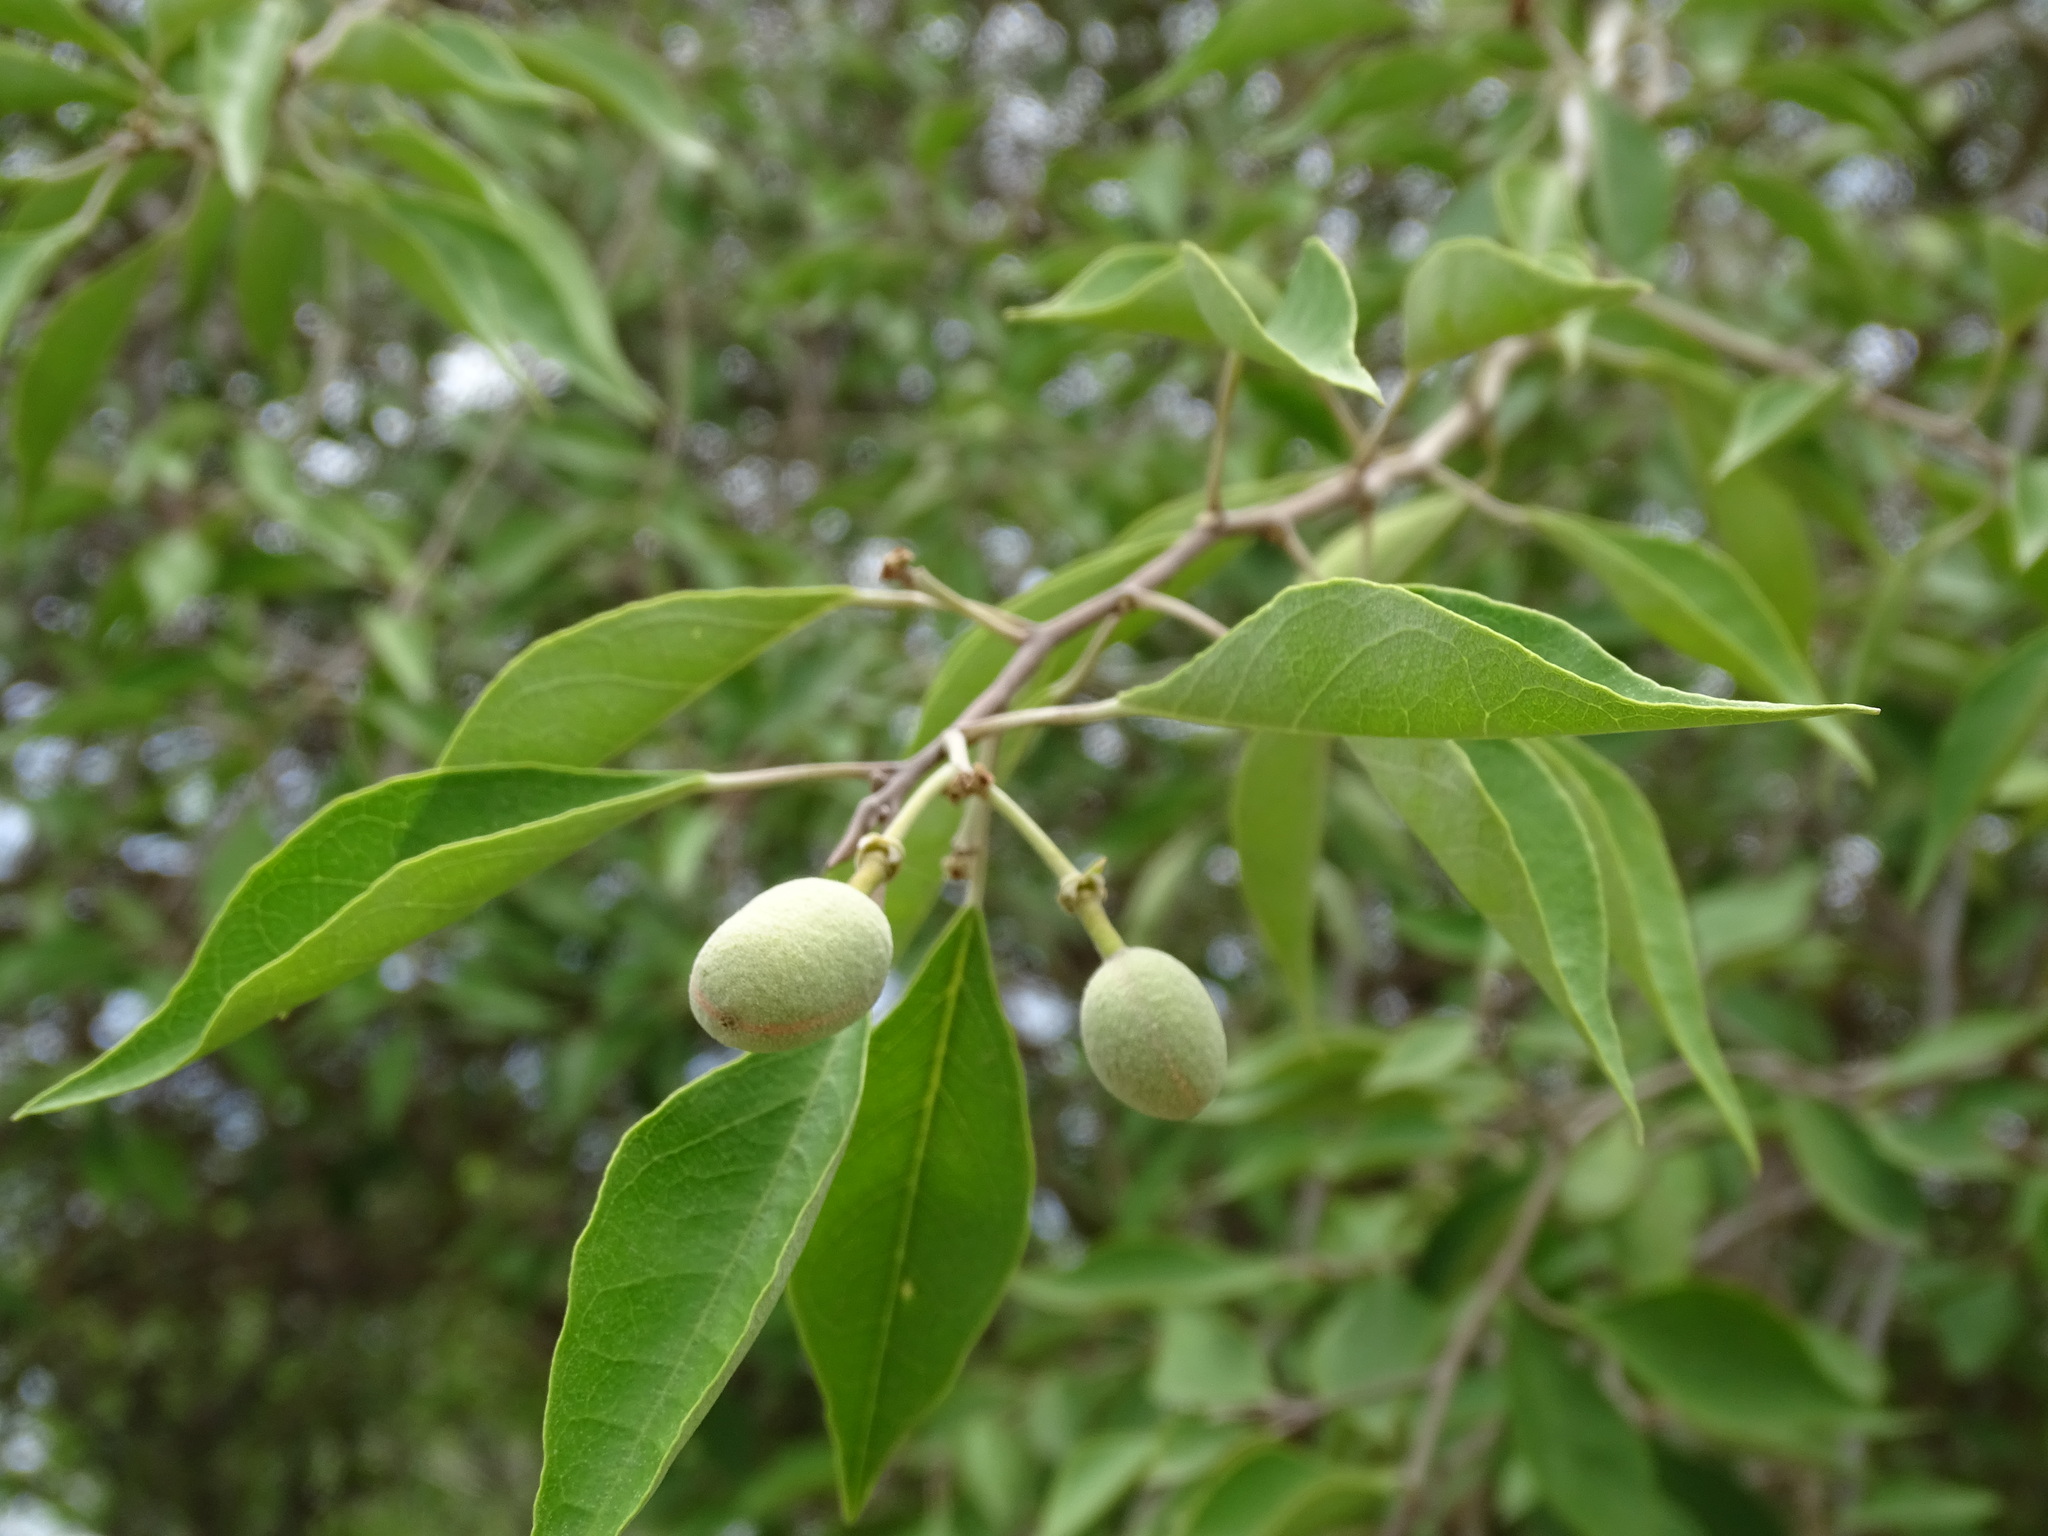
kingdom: Plantae
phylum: Tracheophyta
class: Magnoliopsida
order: Brassicales
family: Capparaceae
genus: Quadrella
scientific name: Quadrella incana
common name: Hoary caper
